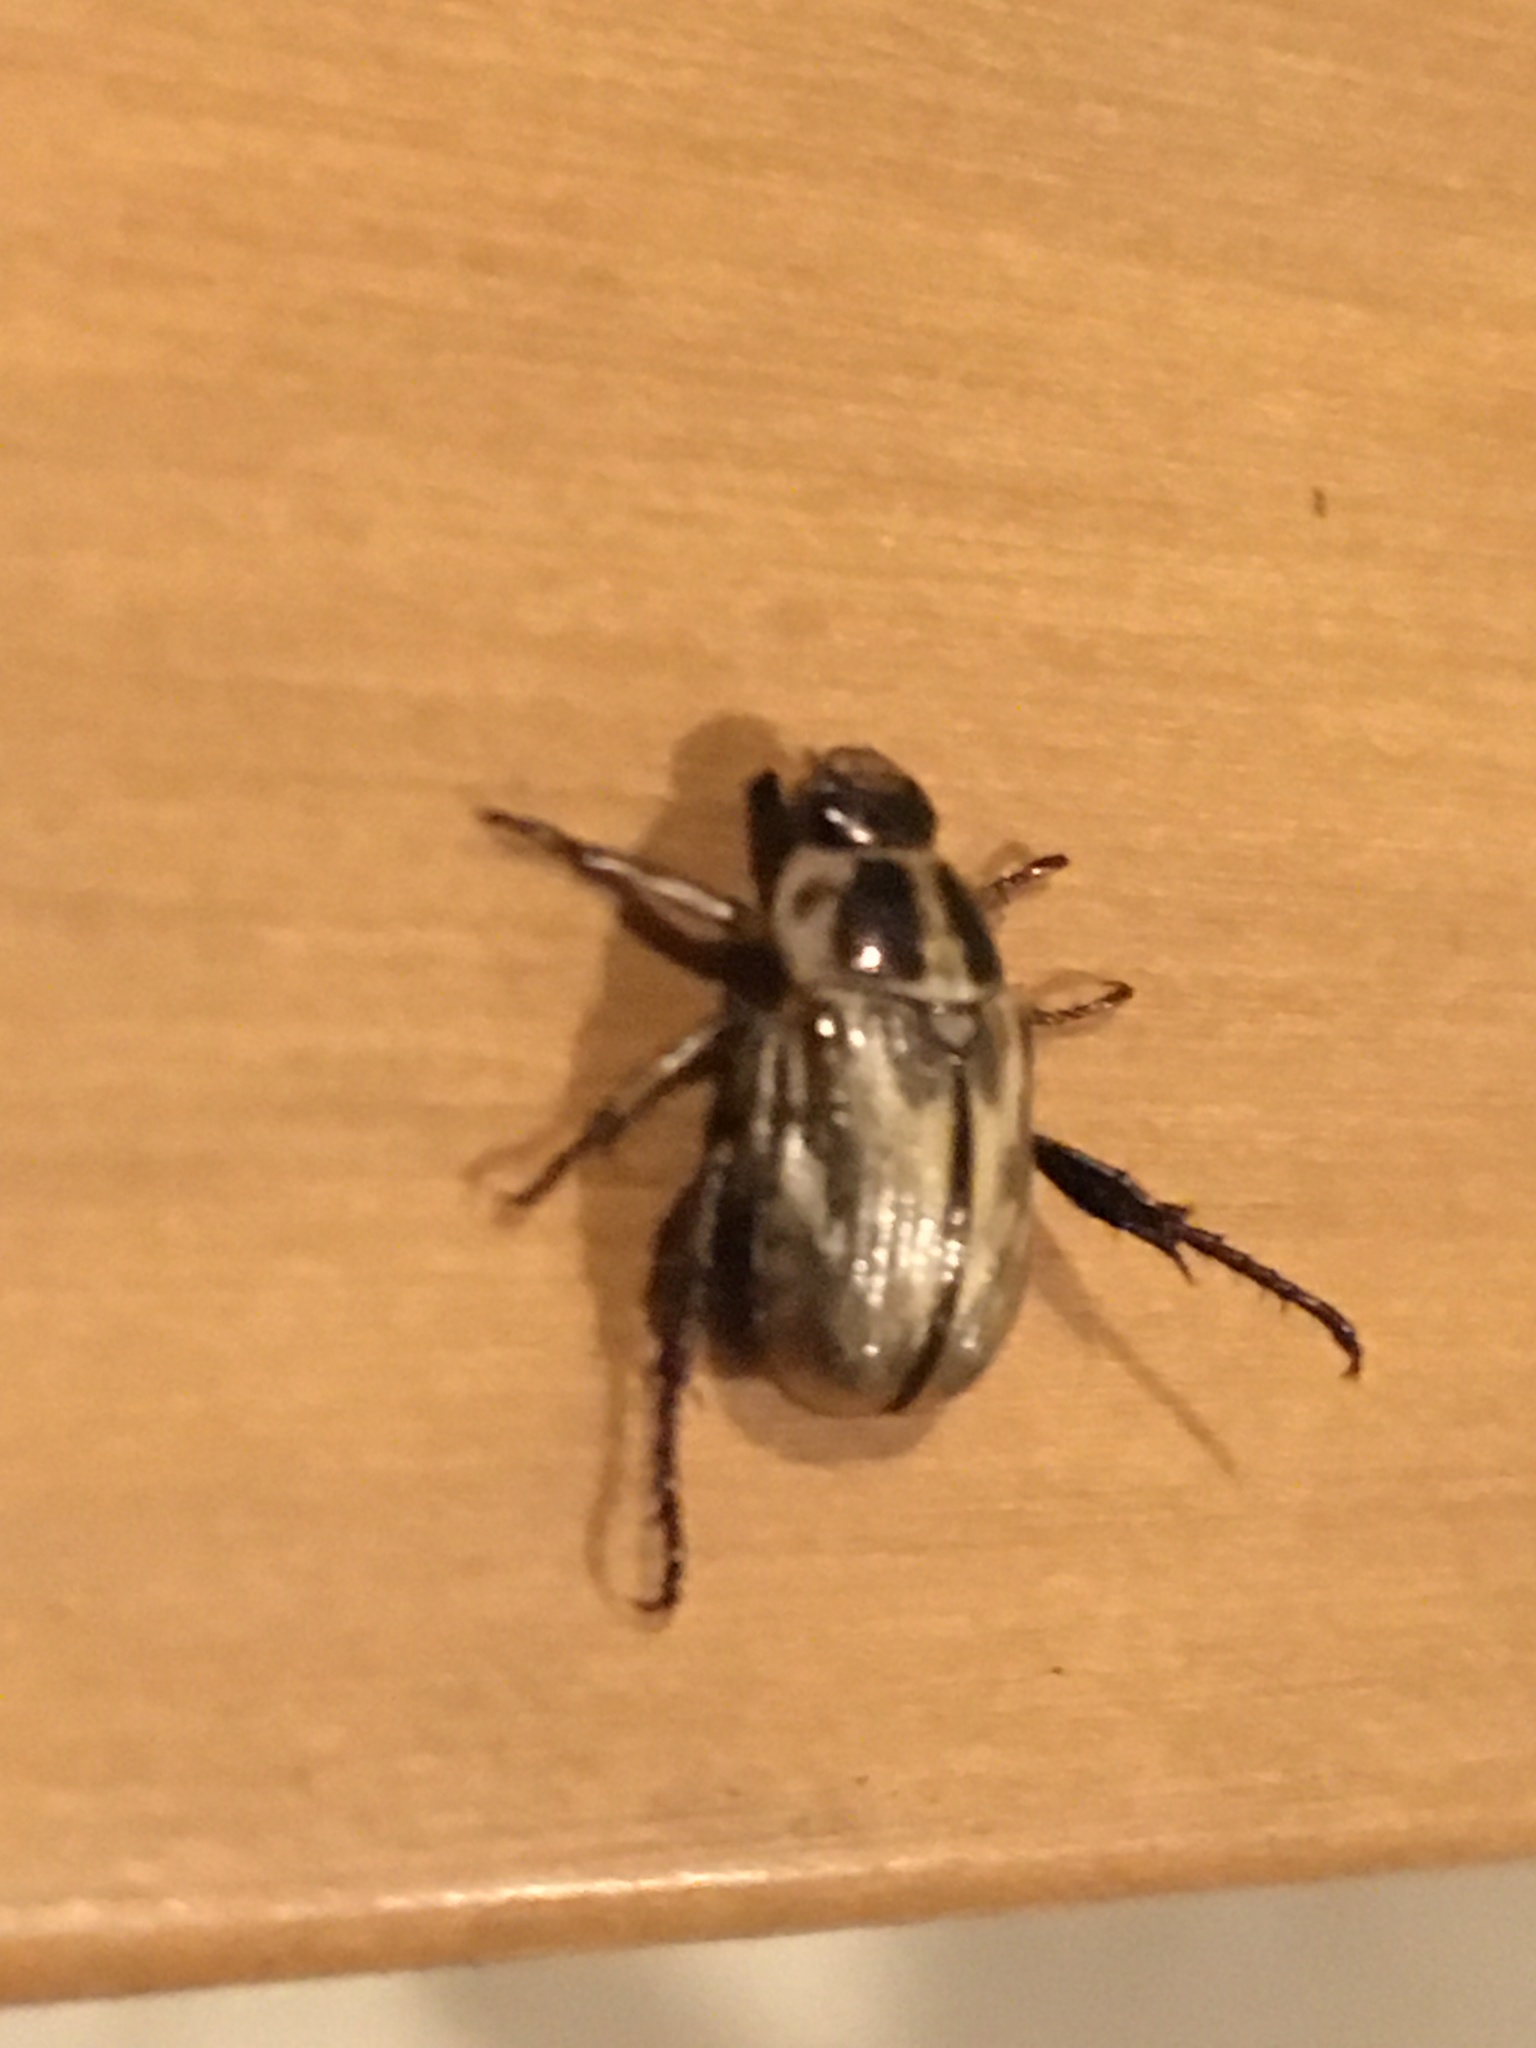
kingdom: Animalia
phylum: Arthropoda
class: Insecta
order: Coleoptera
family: Scarabaeidae
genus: Exomala
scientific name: Exomala orientalis
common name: Oriental beetle
